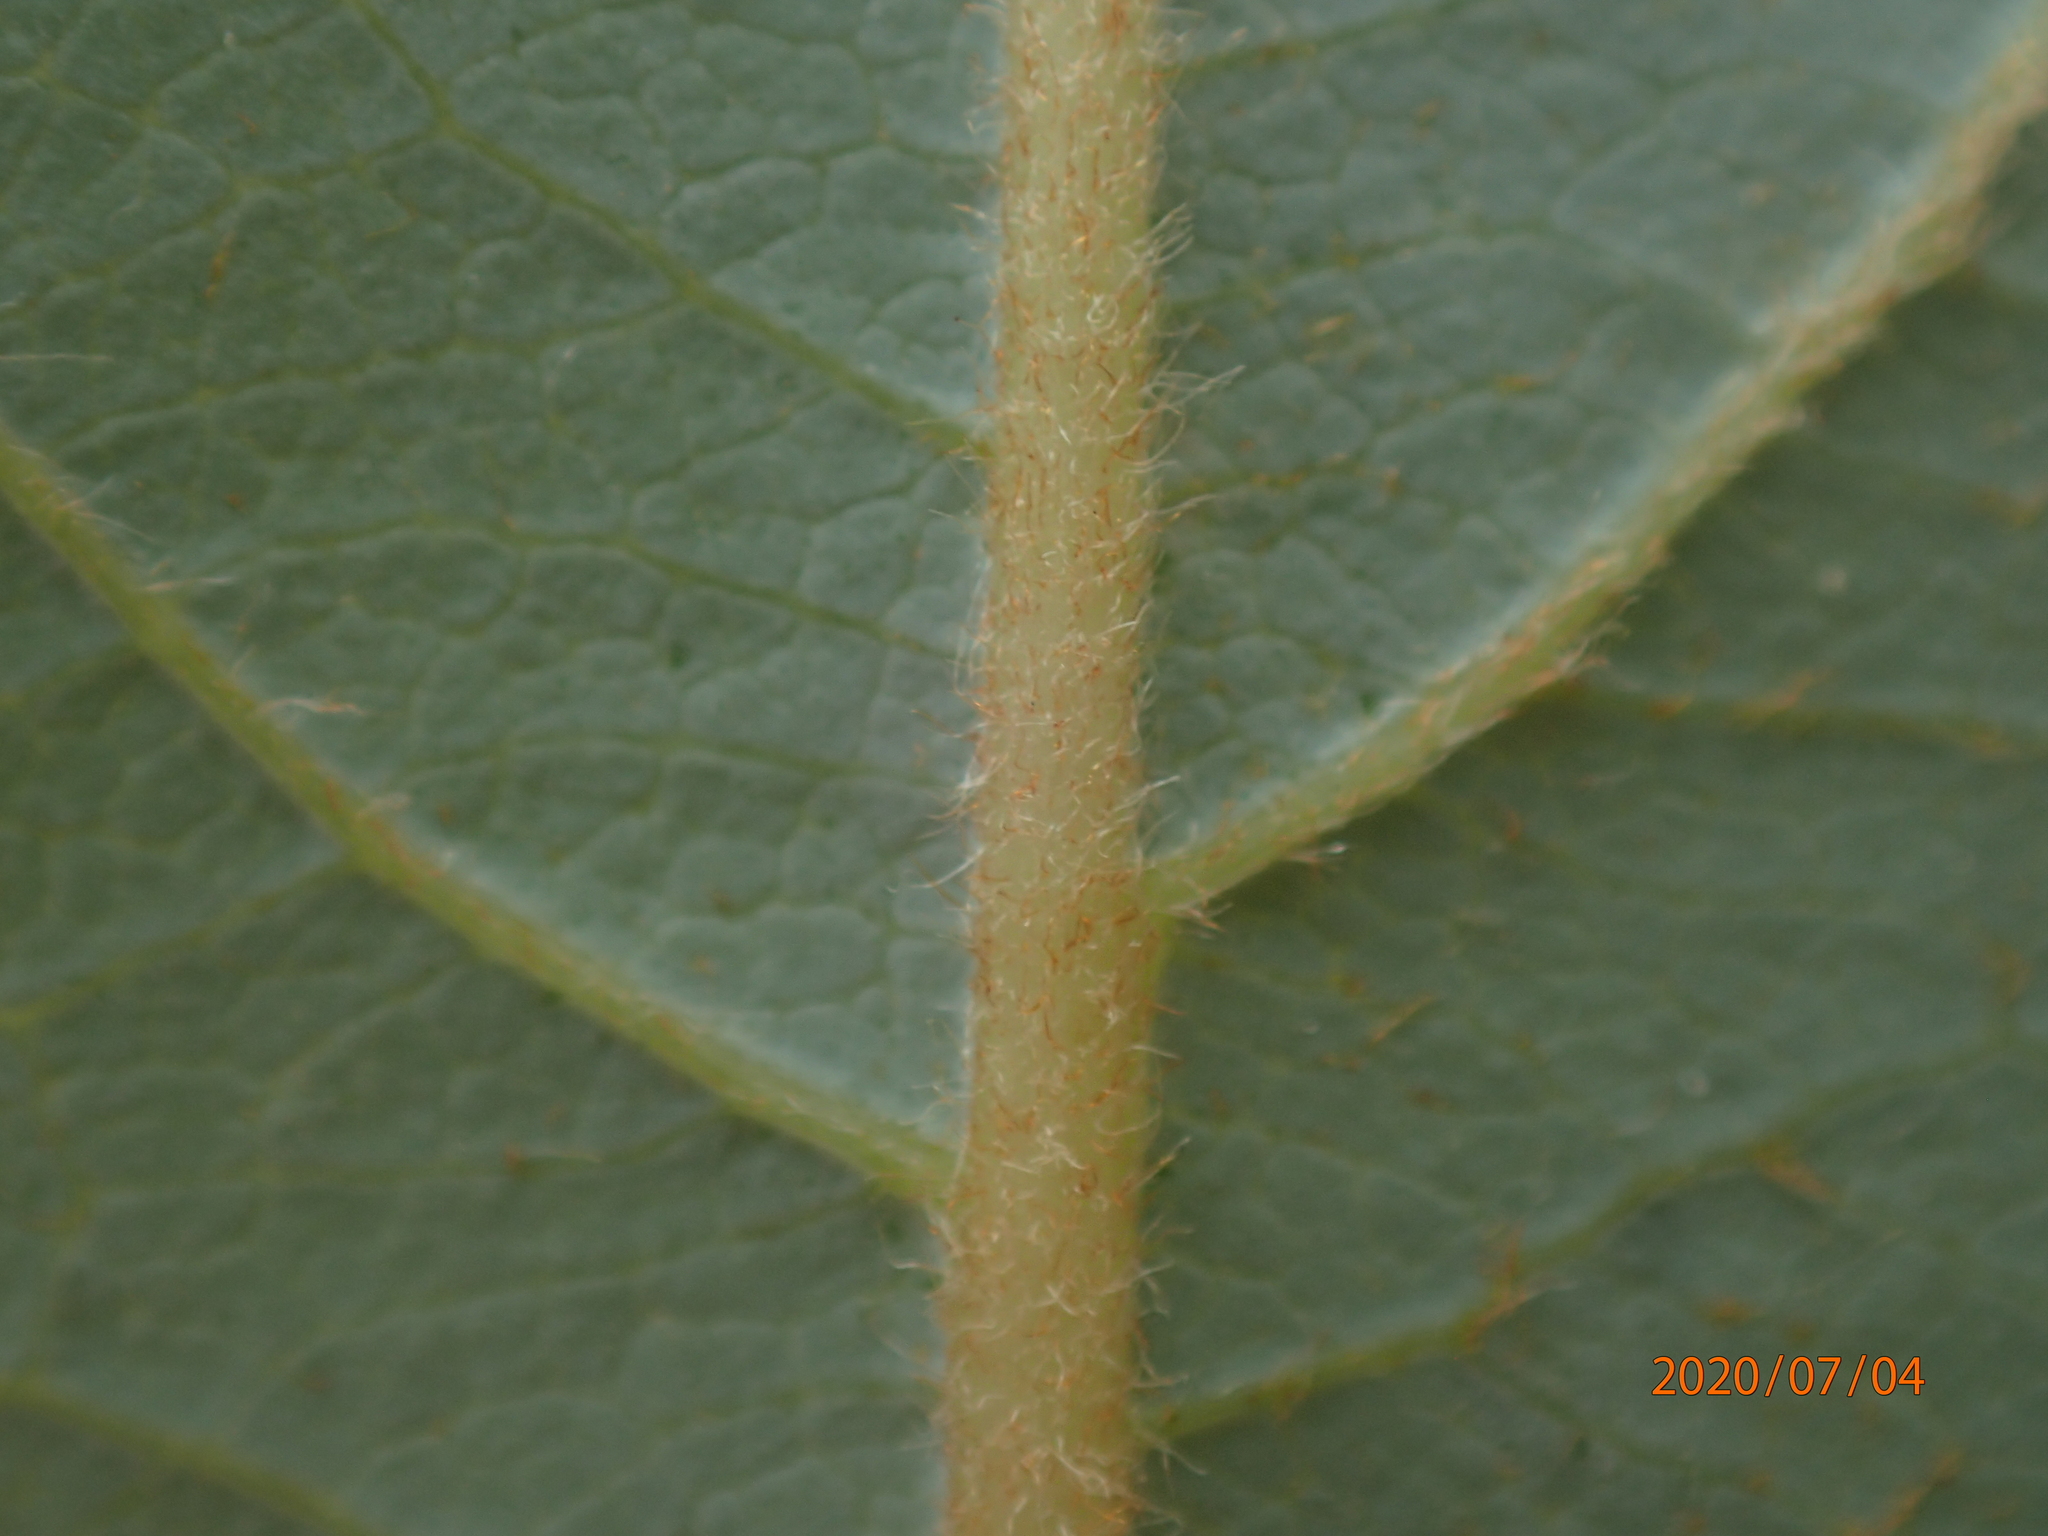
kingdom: Plantae
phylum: Tracheophyta
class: Magnoliopsida
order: Malpighiales
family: Salicaceae
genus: Salix
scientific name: Salix discolor
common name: Glaucous willow
